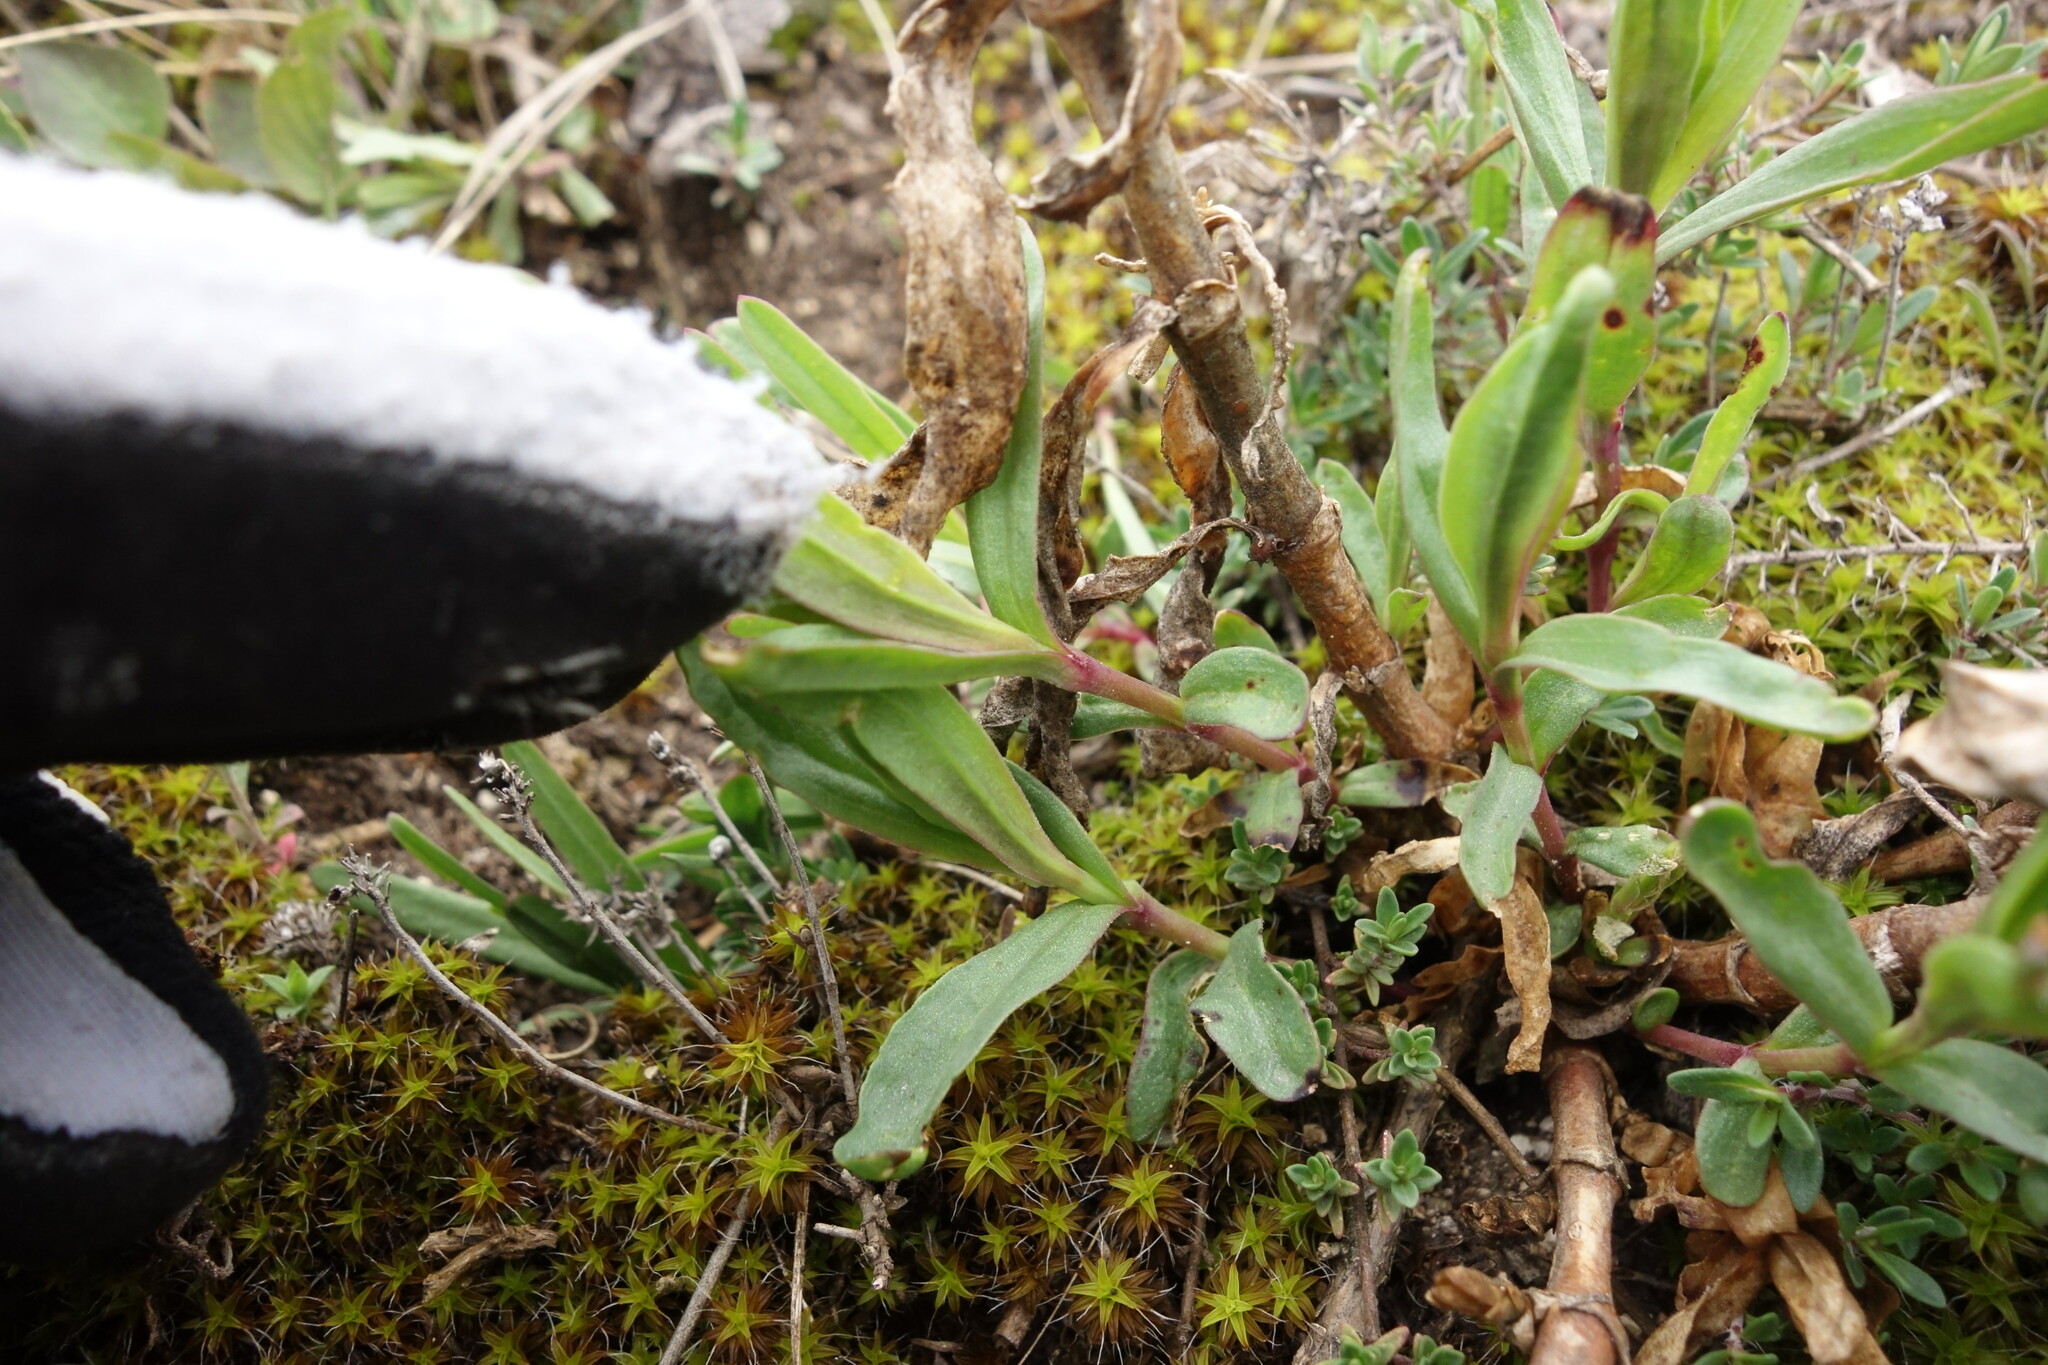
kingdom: Plantae
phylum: Tracheophyta
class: Magnoliopsida
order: Caryophyllales
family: Caryophyllaceae
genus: Gypsophila
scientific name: Gypsophila altissima
